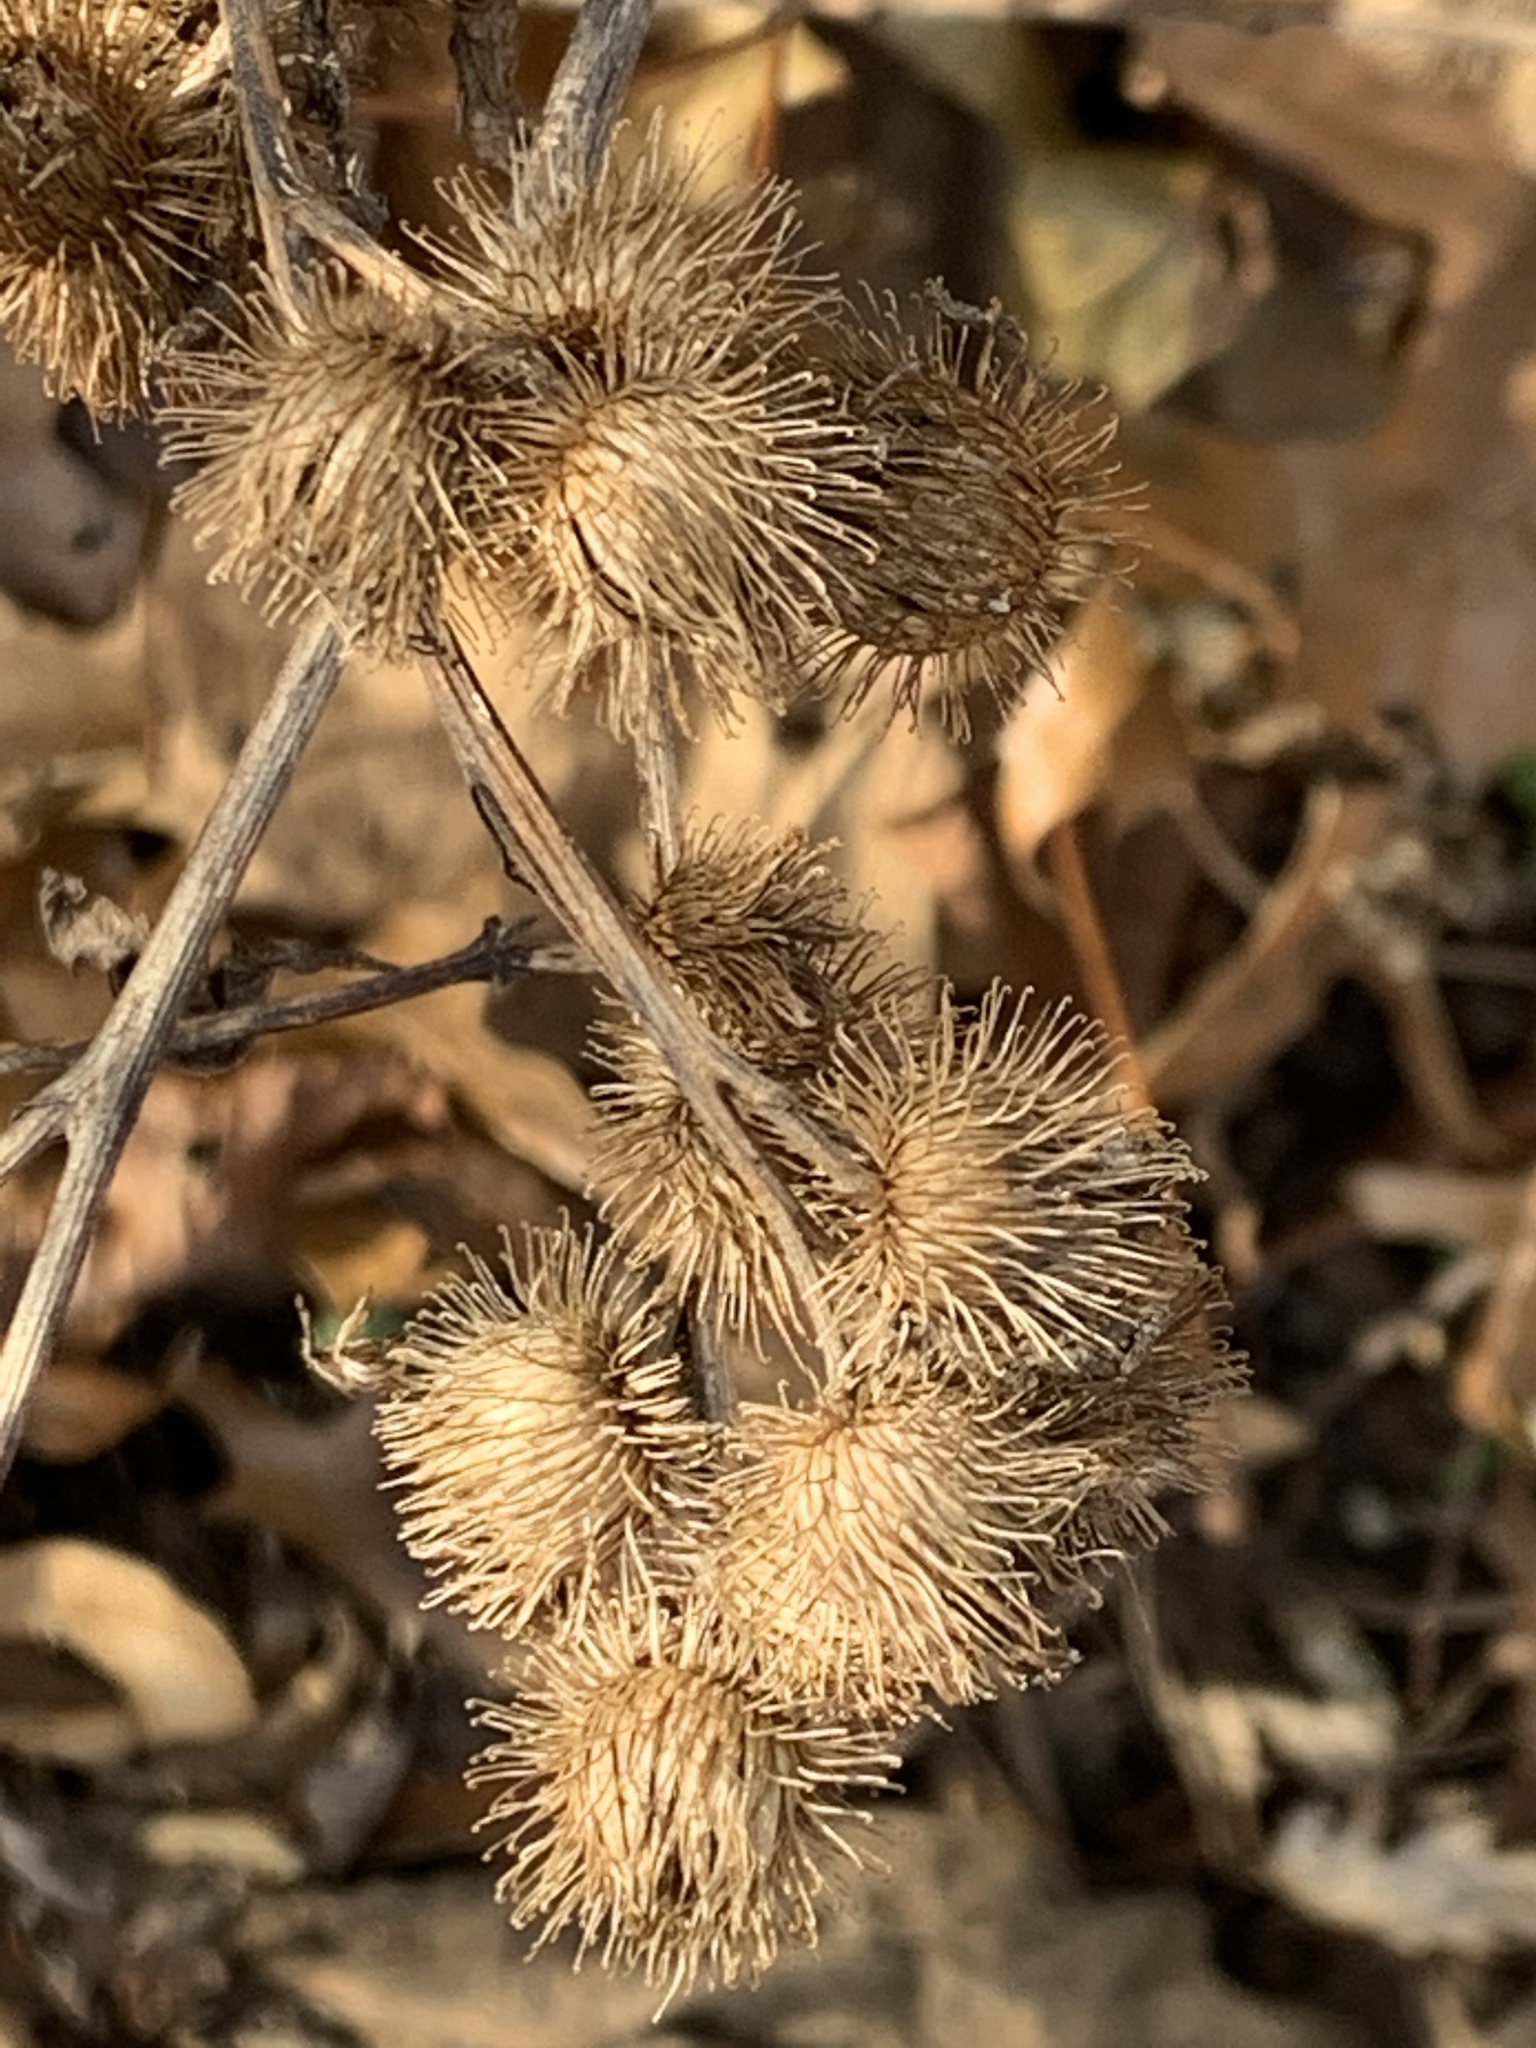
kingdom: Plantae
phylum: Tracheophyta
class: Magnoliopsida
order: Asterales
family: Asteraceae
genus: Arctium
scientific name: Arctium minus
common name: Lesser burdock
